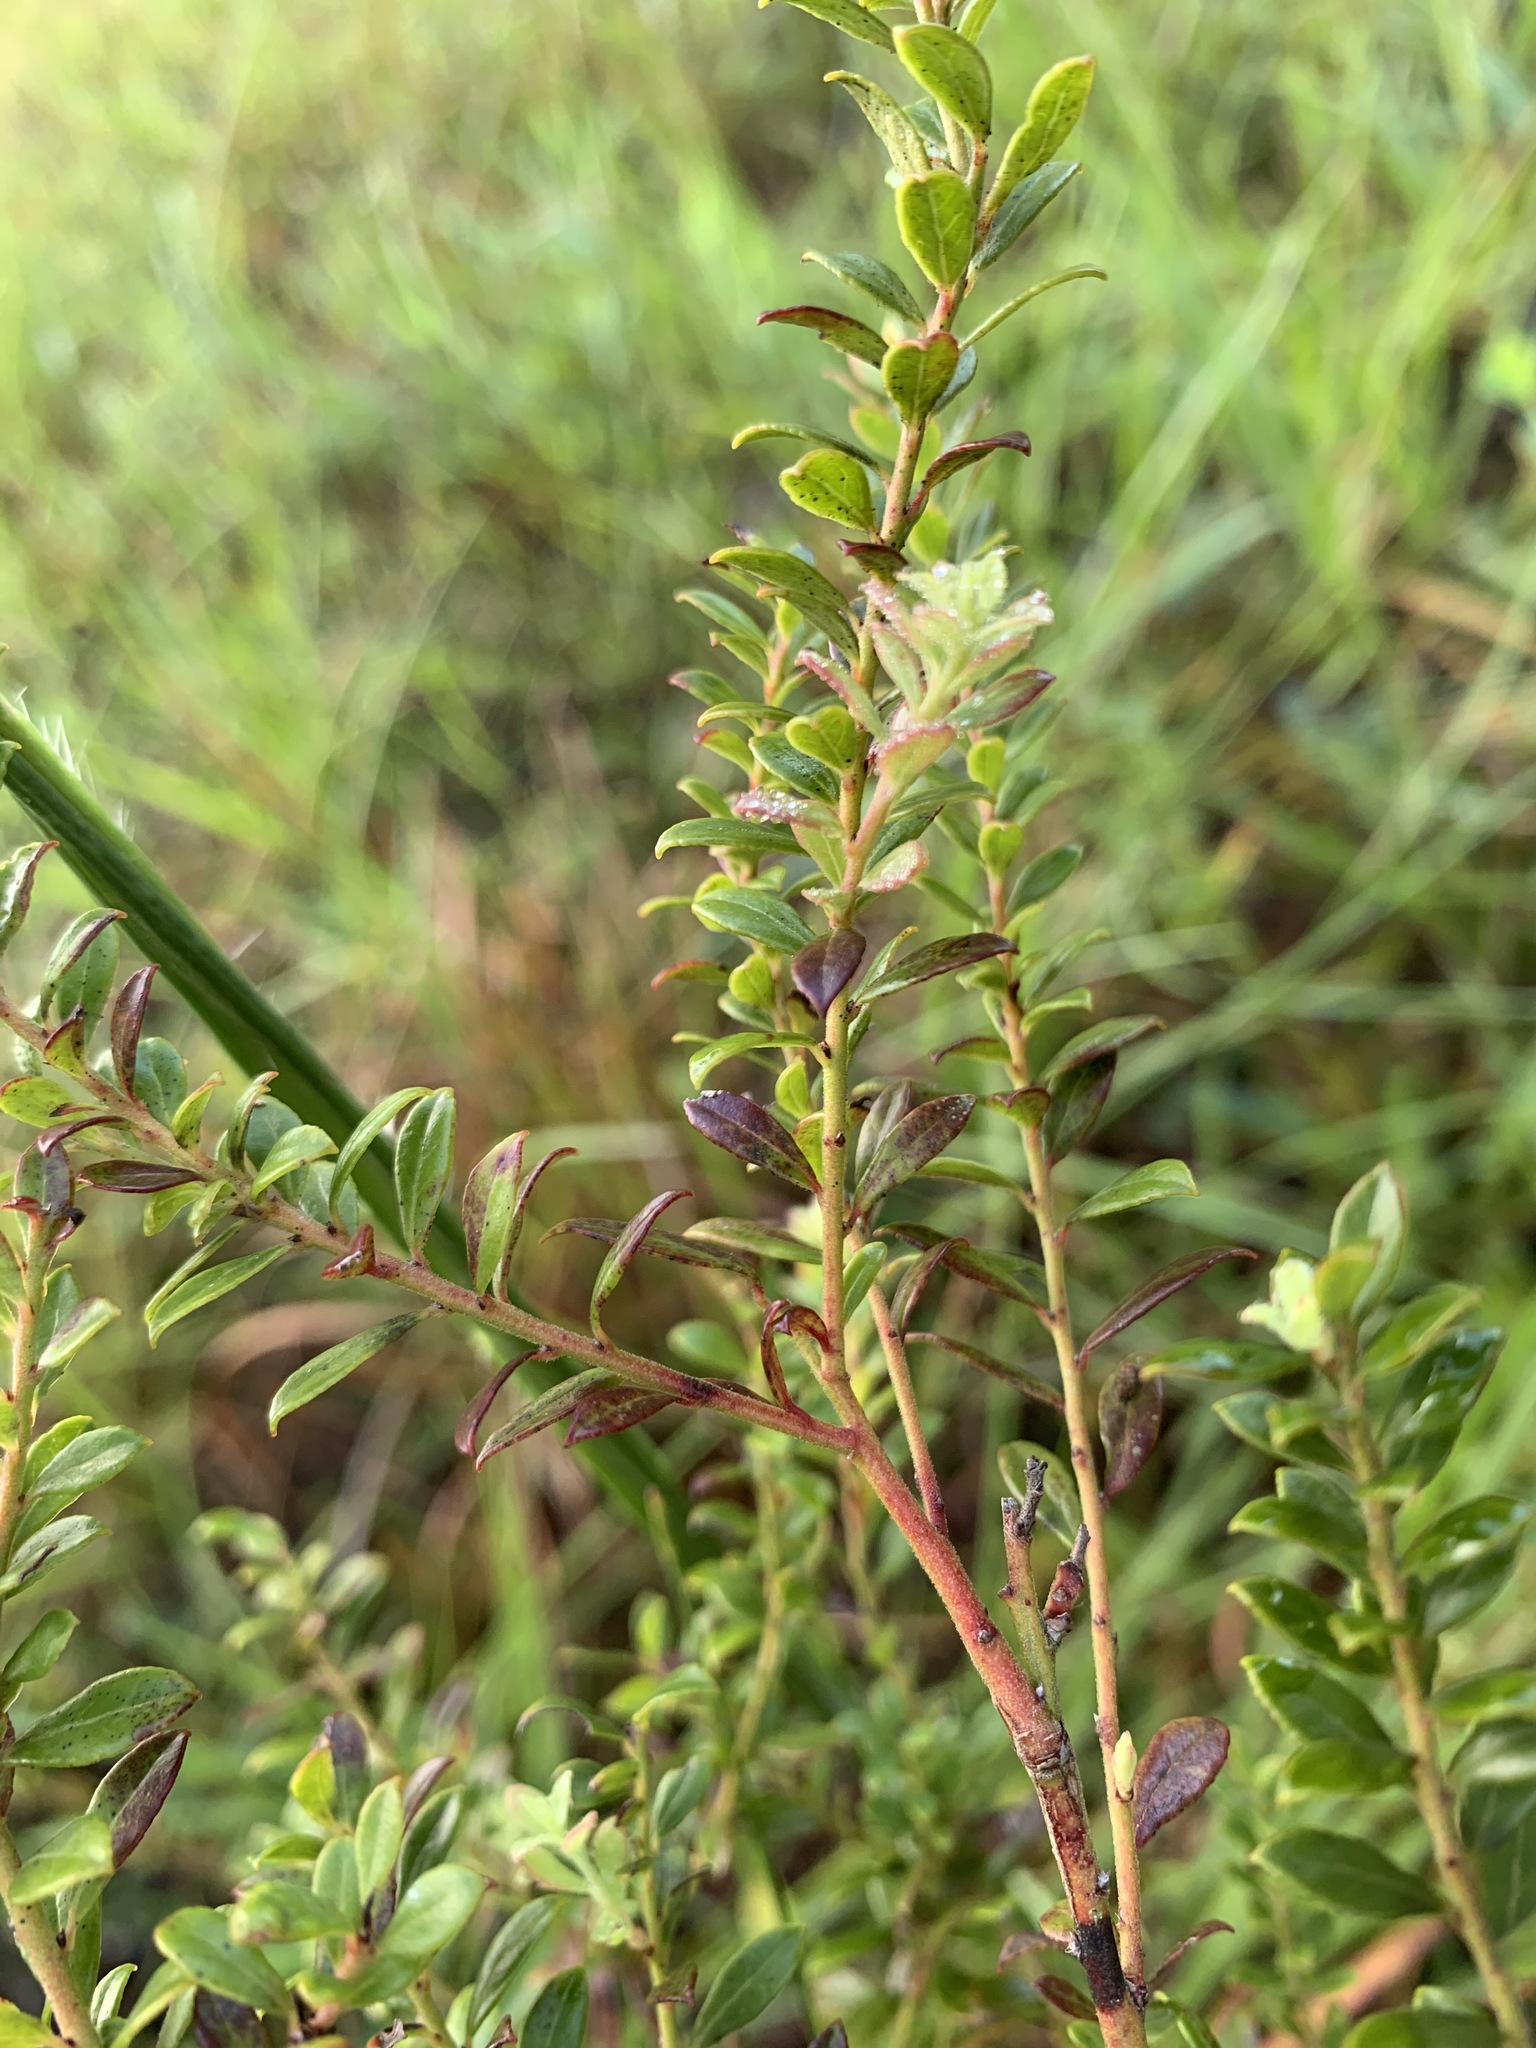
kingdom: Plantae
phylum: Tracheophyta
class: Magnoliopsida
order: Ericales
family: Ericaceae
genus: Vaccinium
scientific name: Vaccinium myrsinites
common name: Evergreen blueberry
